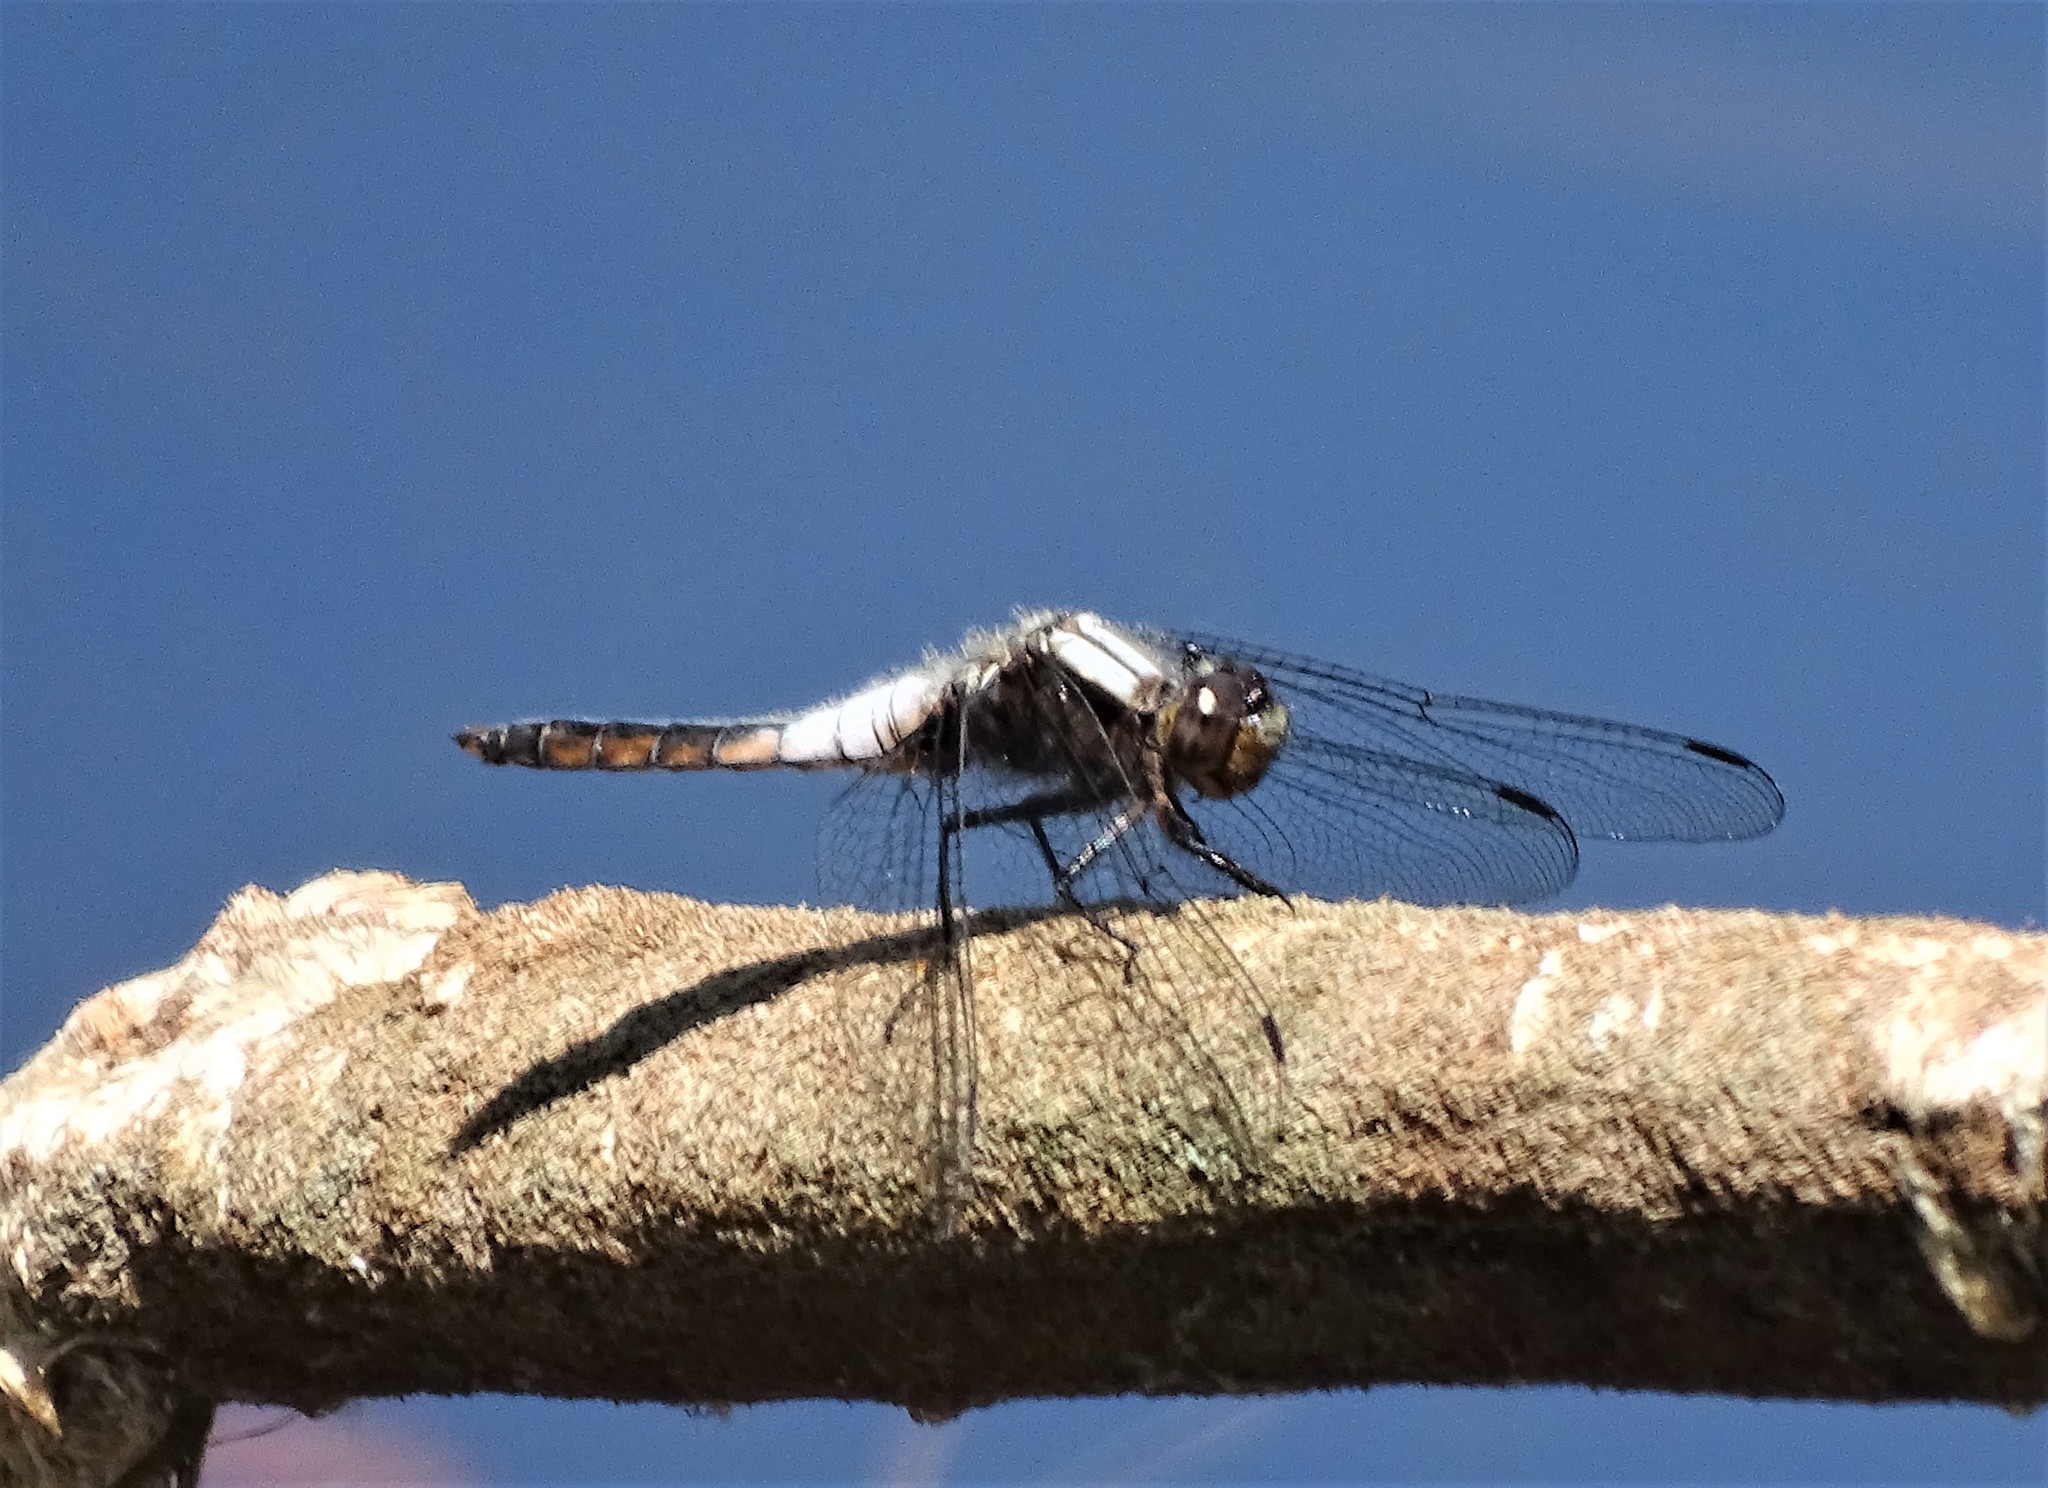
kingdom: Animalia
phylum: Arthropoda
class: Insecta
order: Odonata
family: Libellulidae
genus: Ladona
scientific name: Ladona julia
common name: Chalk-fronted corporal
